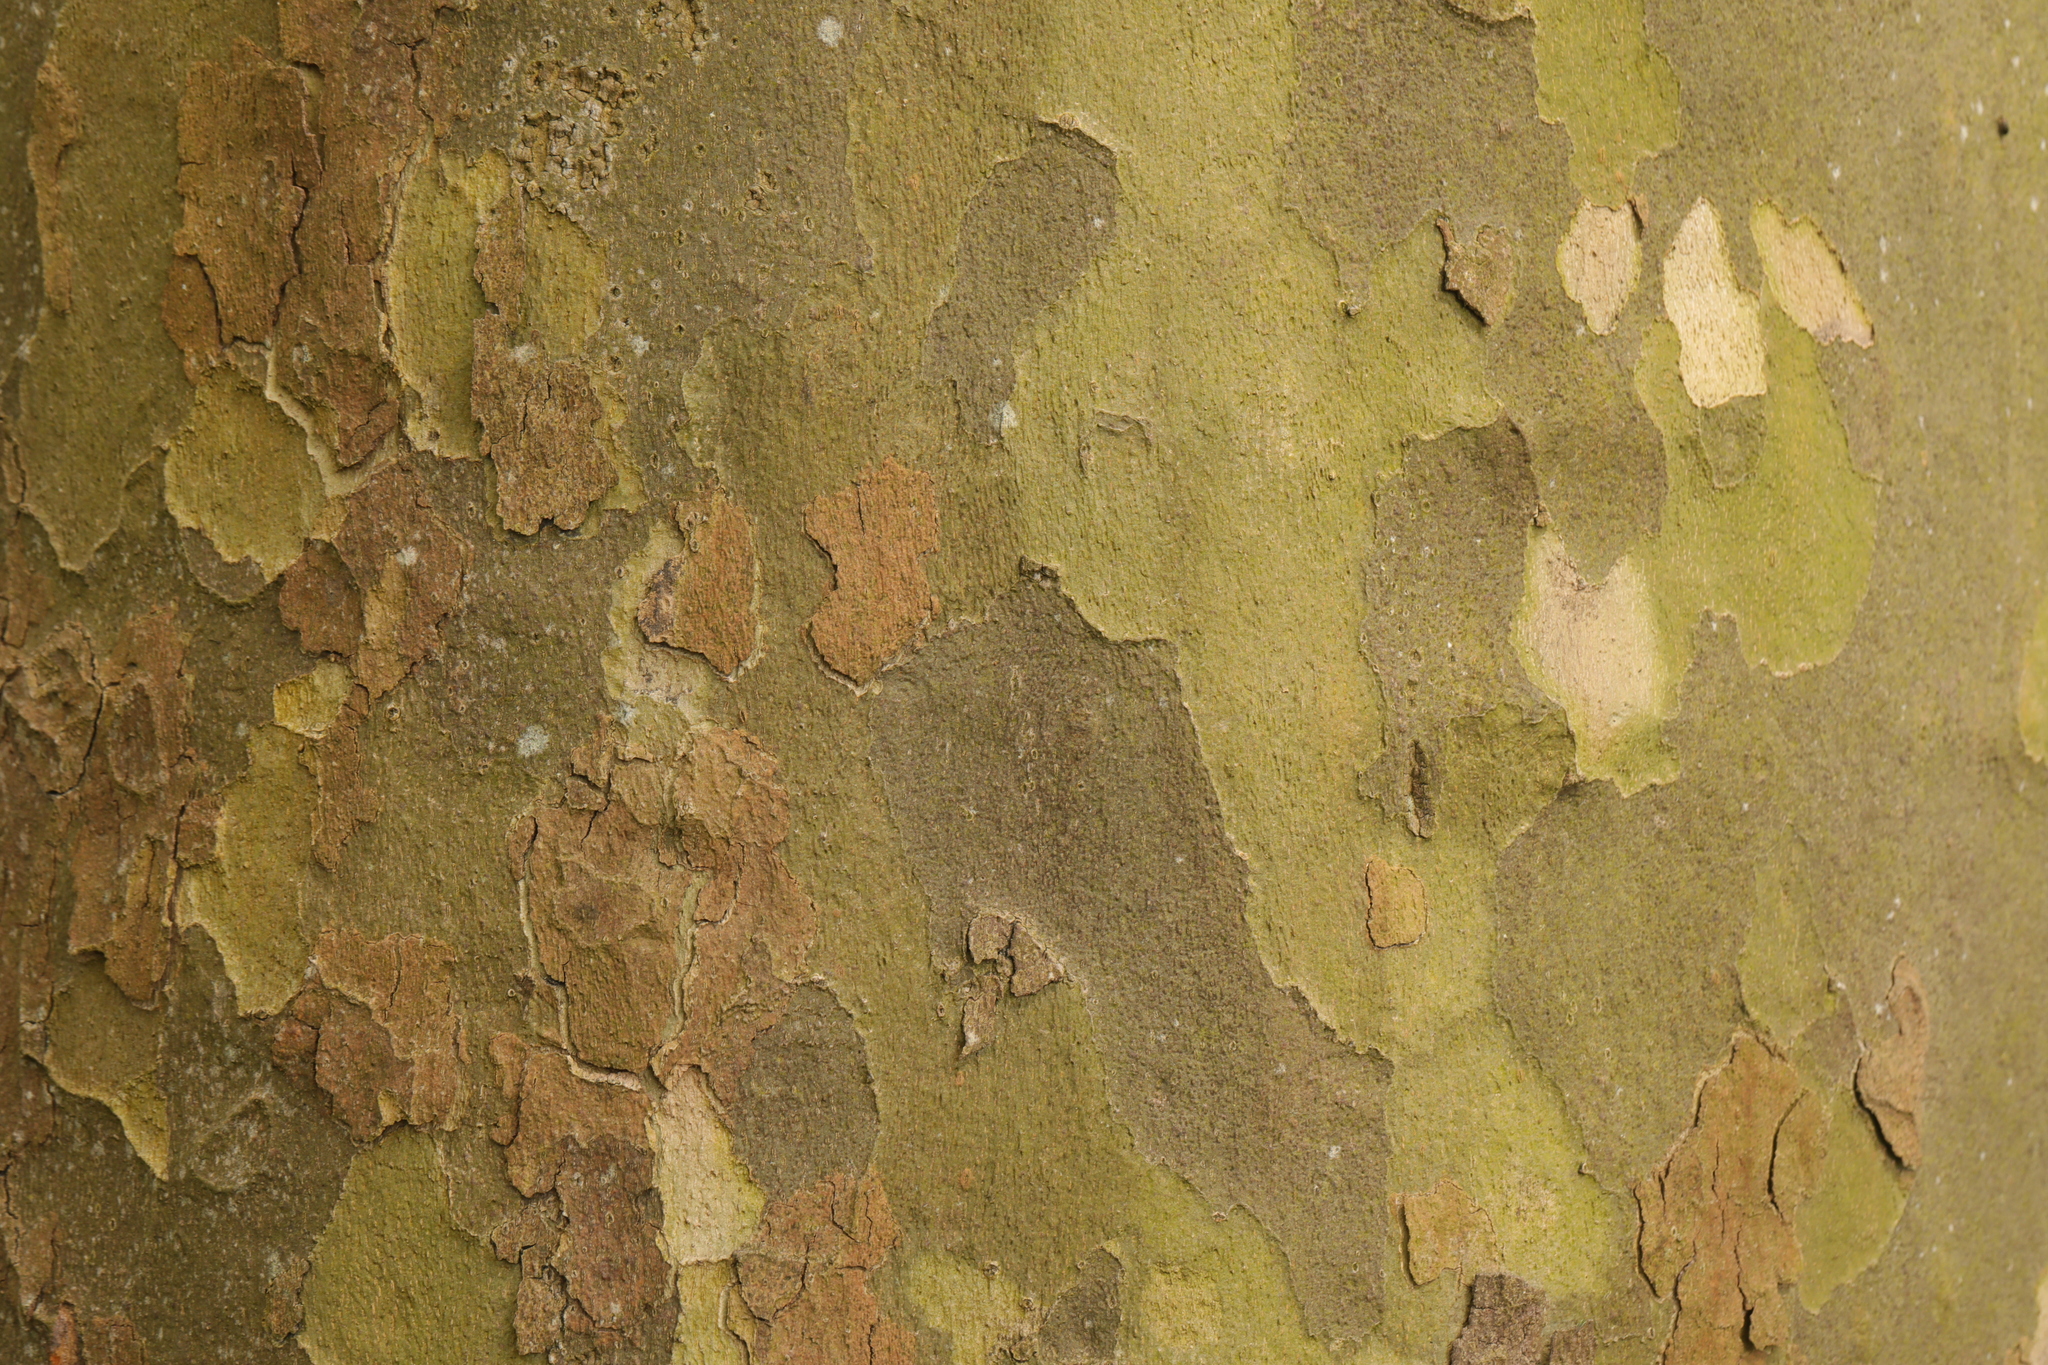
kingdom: Plantae
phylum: Tracheophyta
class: Magnoliopsida
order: Proteales
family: Platanaceae
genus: Platanus
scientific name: Platanus hispanica
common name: London plane
